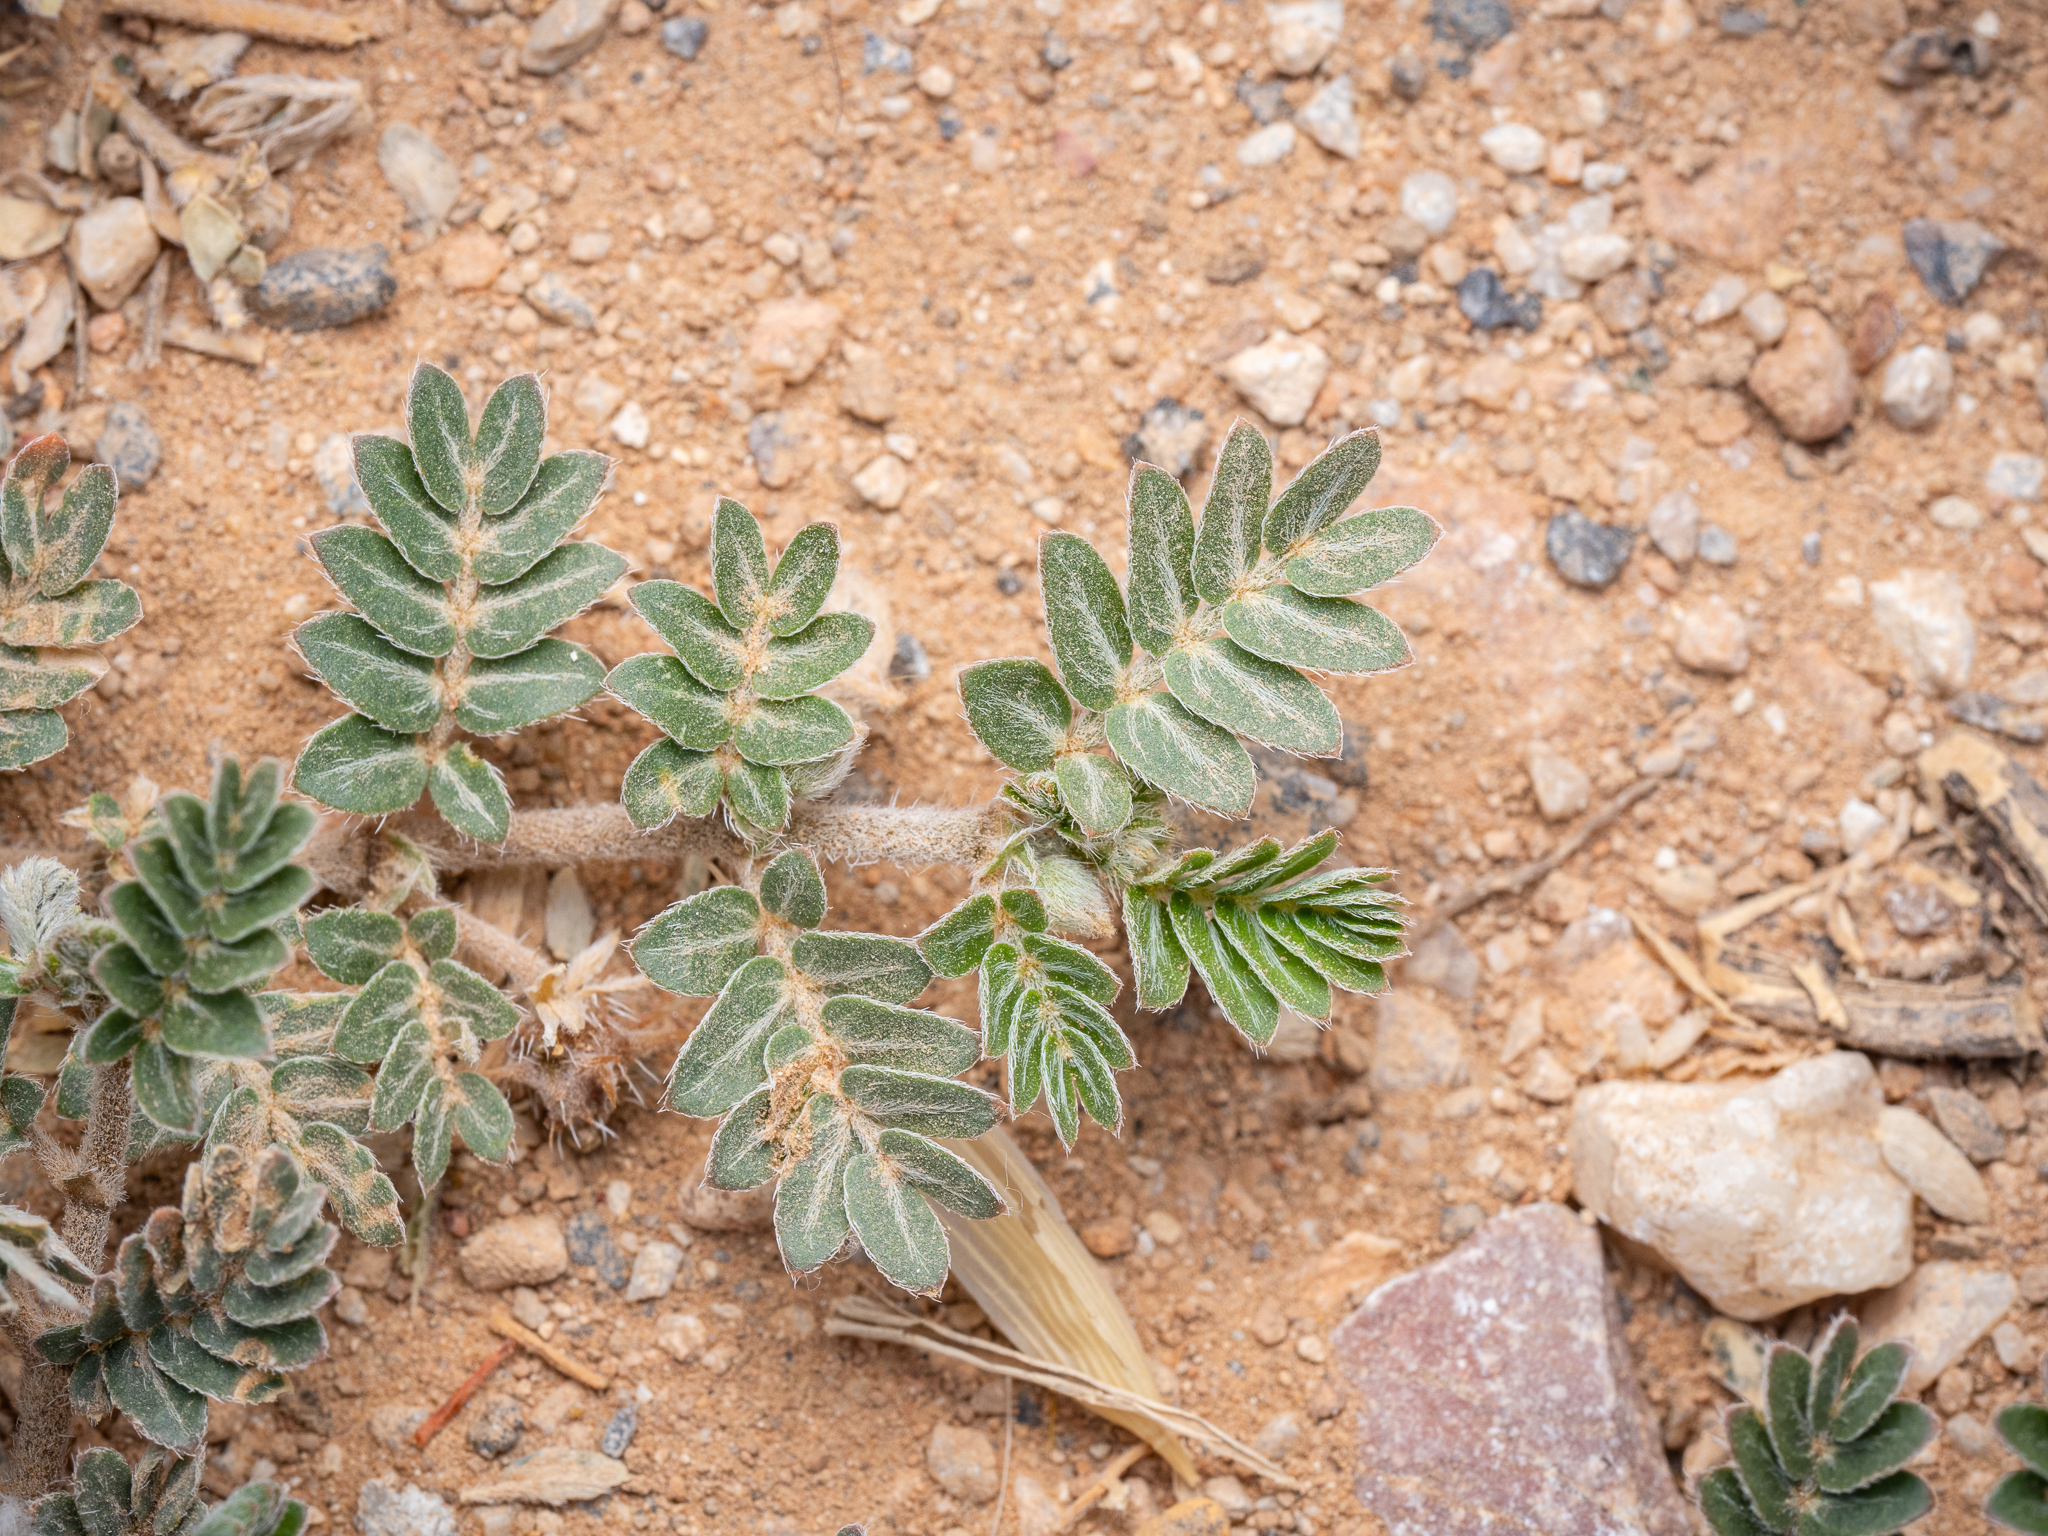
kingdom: Plantae
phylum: Tracheophyta
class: Magnoliopsida
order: Zygophyllales
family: Zygophyllaceae
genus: Tribulus
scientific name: Tribulus terrestris
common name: Puncturevine
